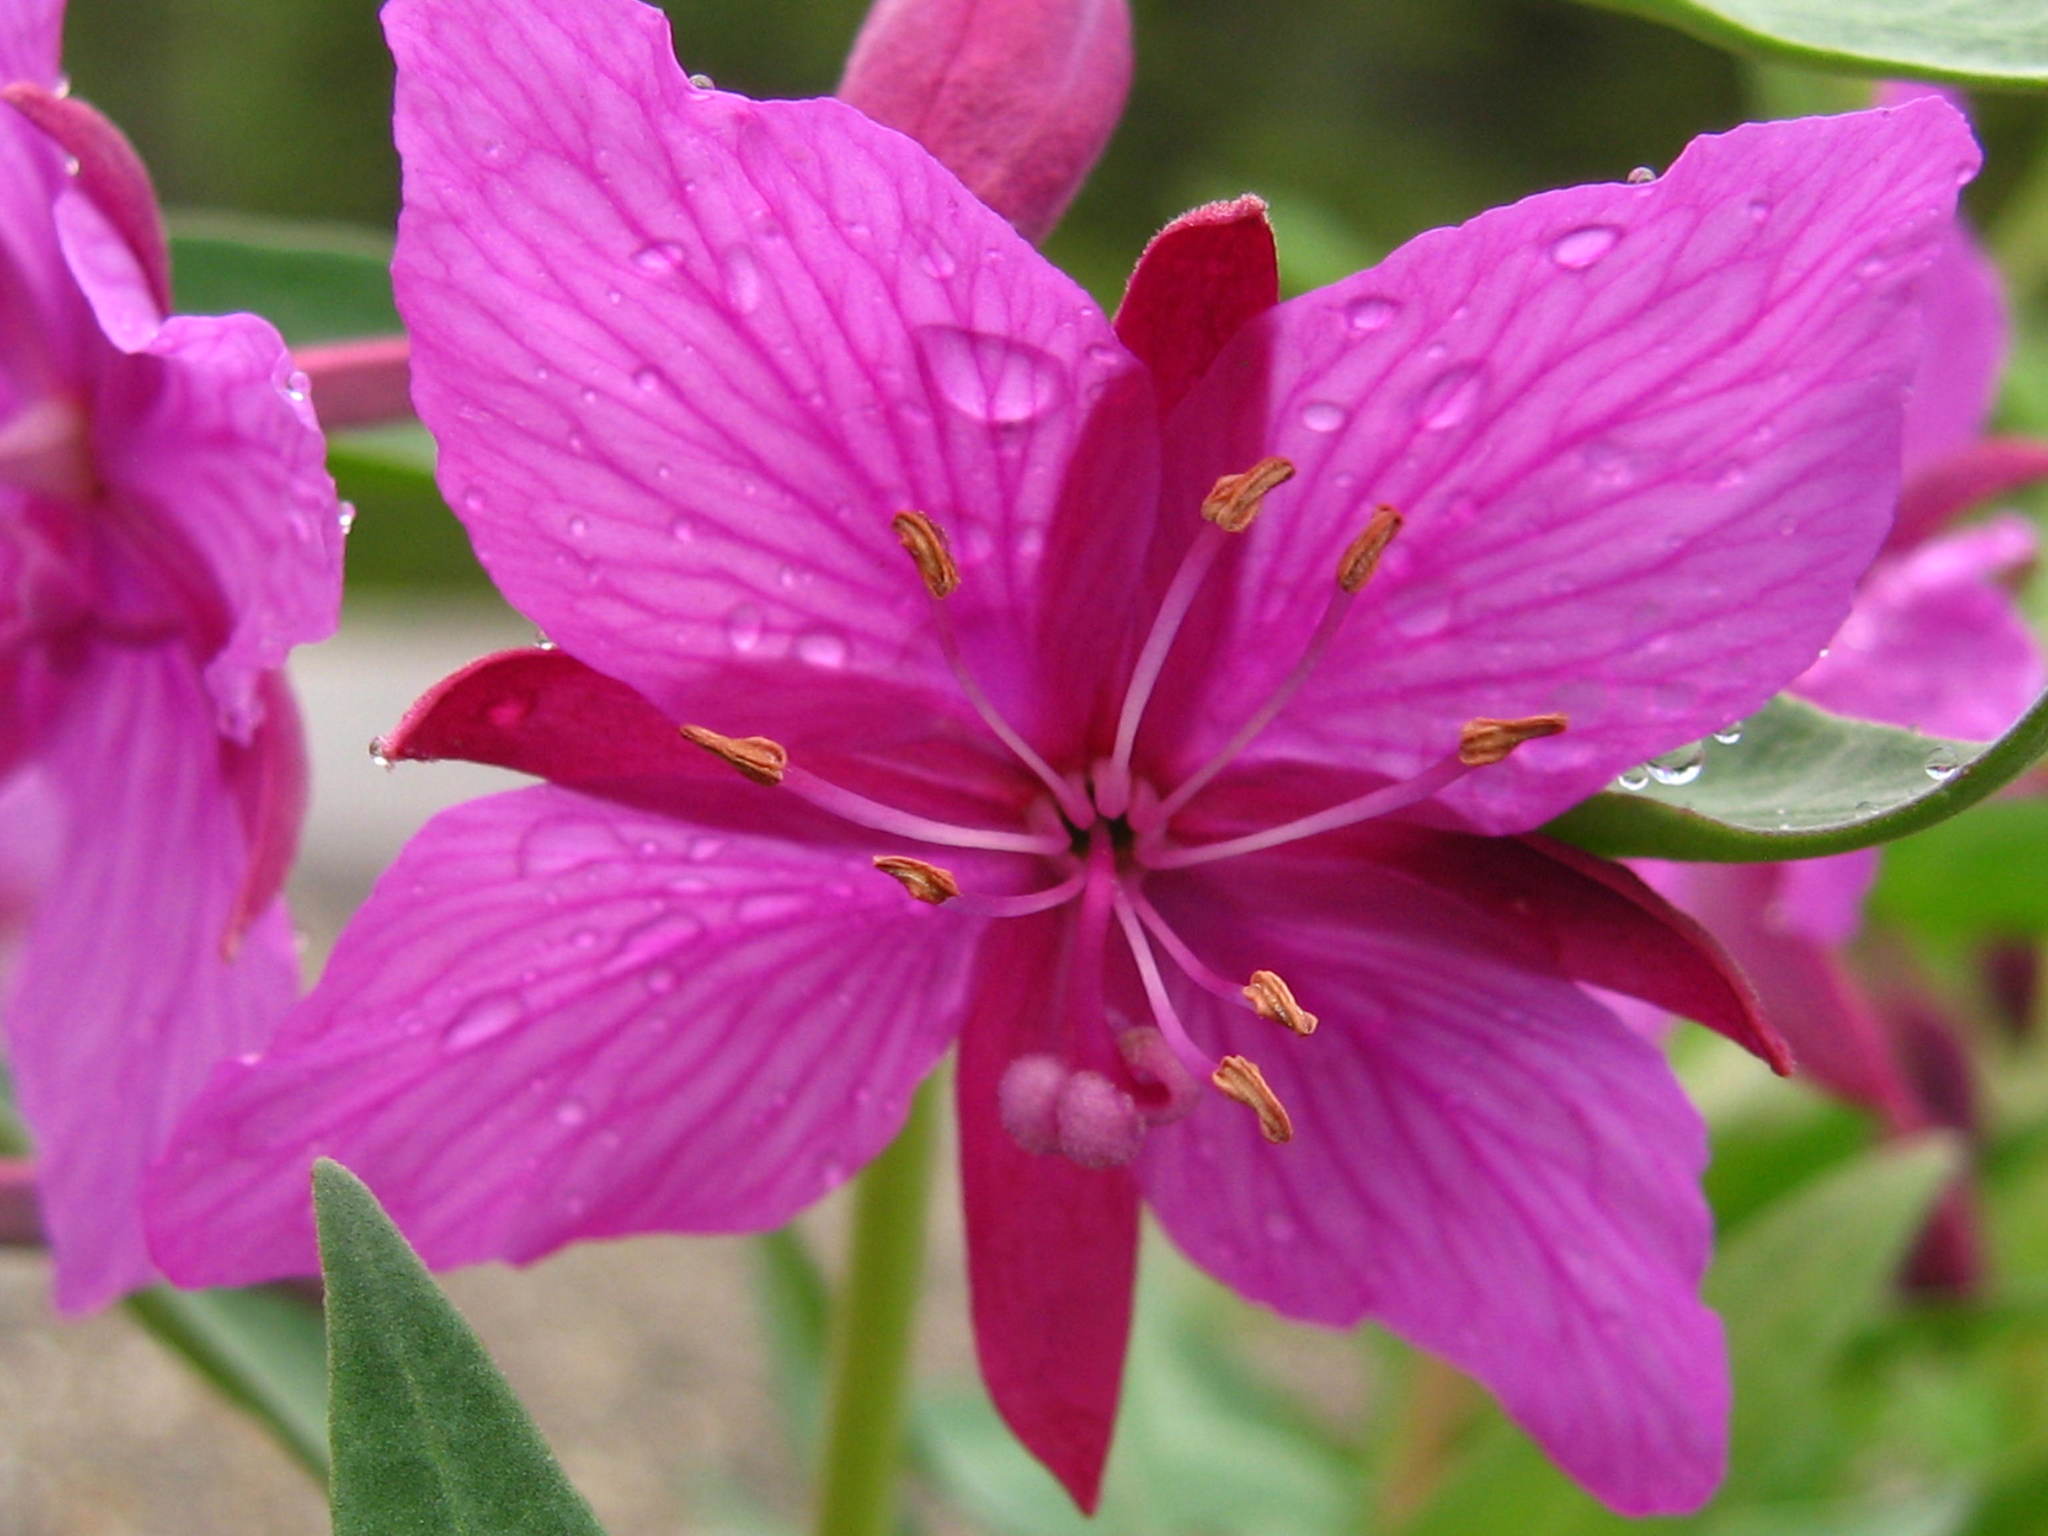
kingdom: Plantae
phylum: Tracheophyta
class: Magnoliopsida
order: Myrtales
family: Onagraceae
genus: Chamaenerion
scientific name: Chamaenerion latifolium
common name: Dwarf fireweed
